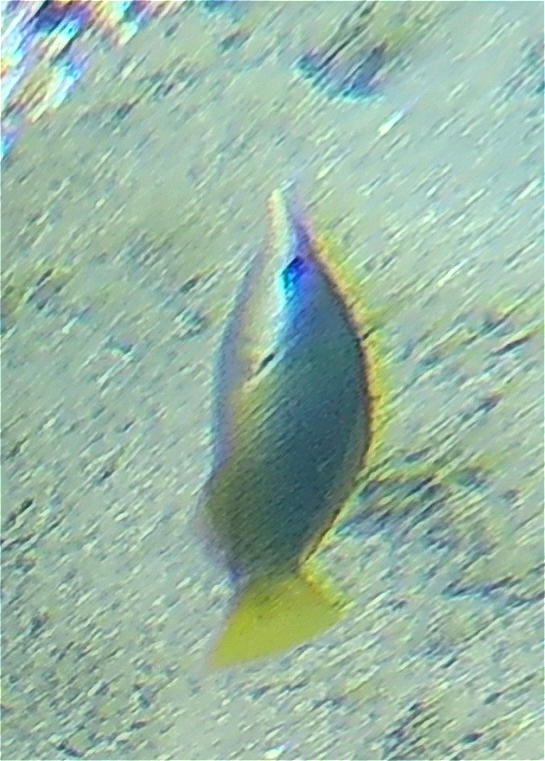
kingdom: Animalia
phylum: Chordata
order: Perciformes
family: Labridae
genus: Gomphosus
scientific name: Gomphosus klunzingeri
